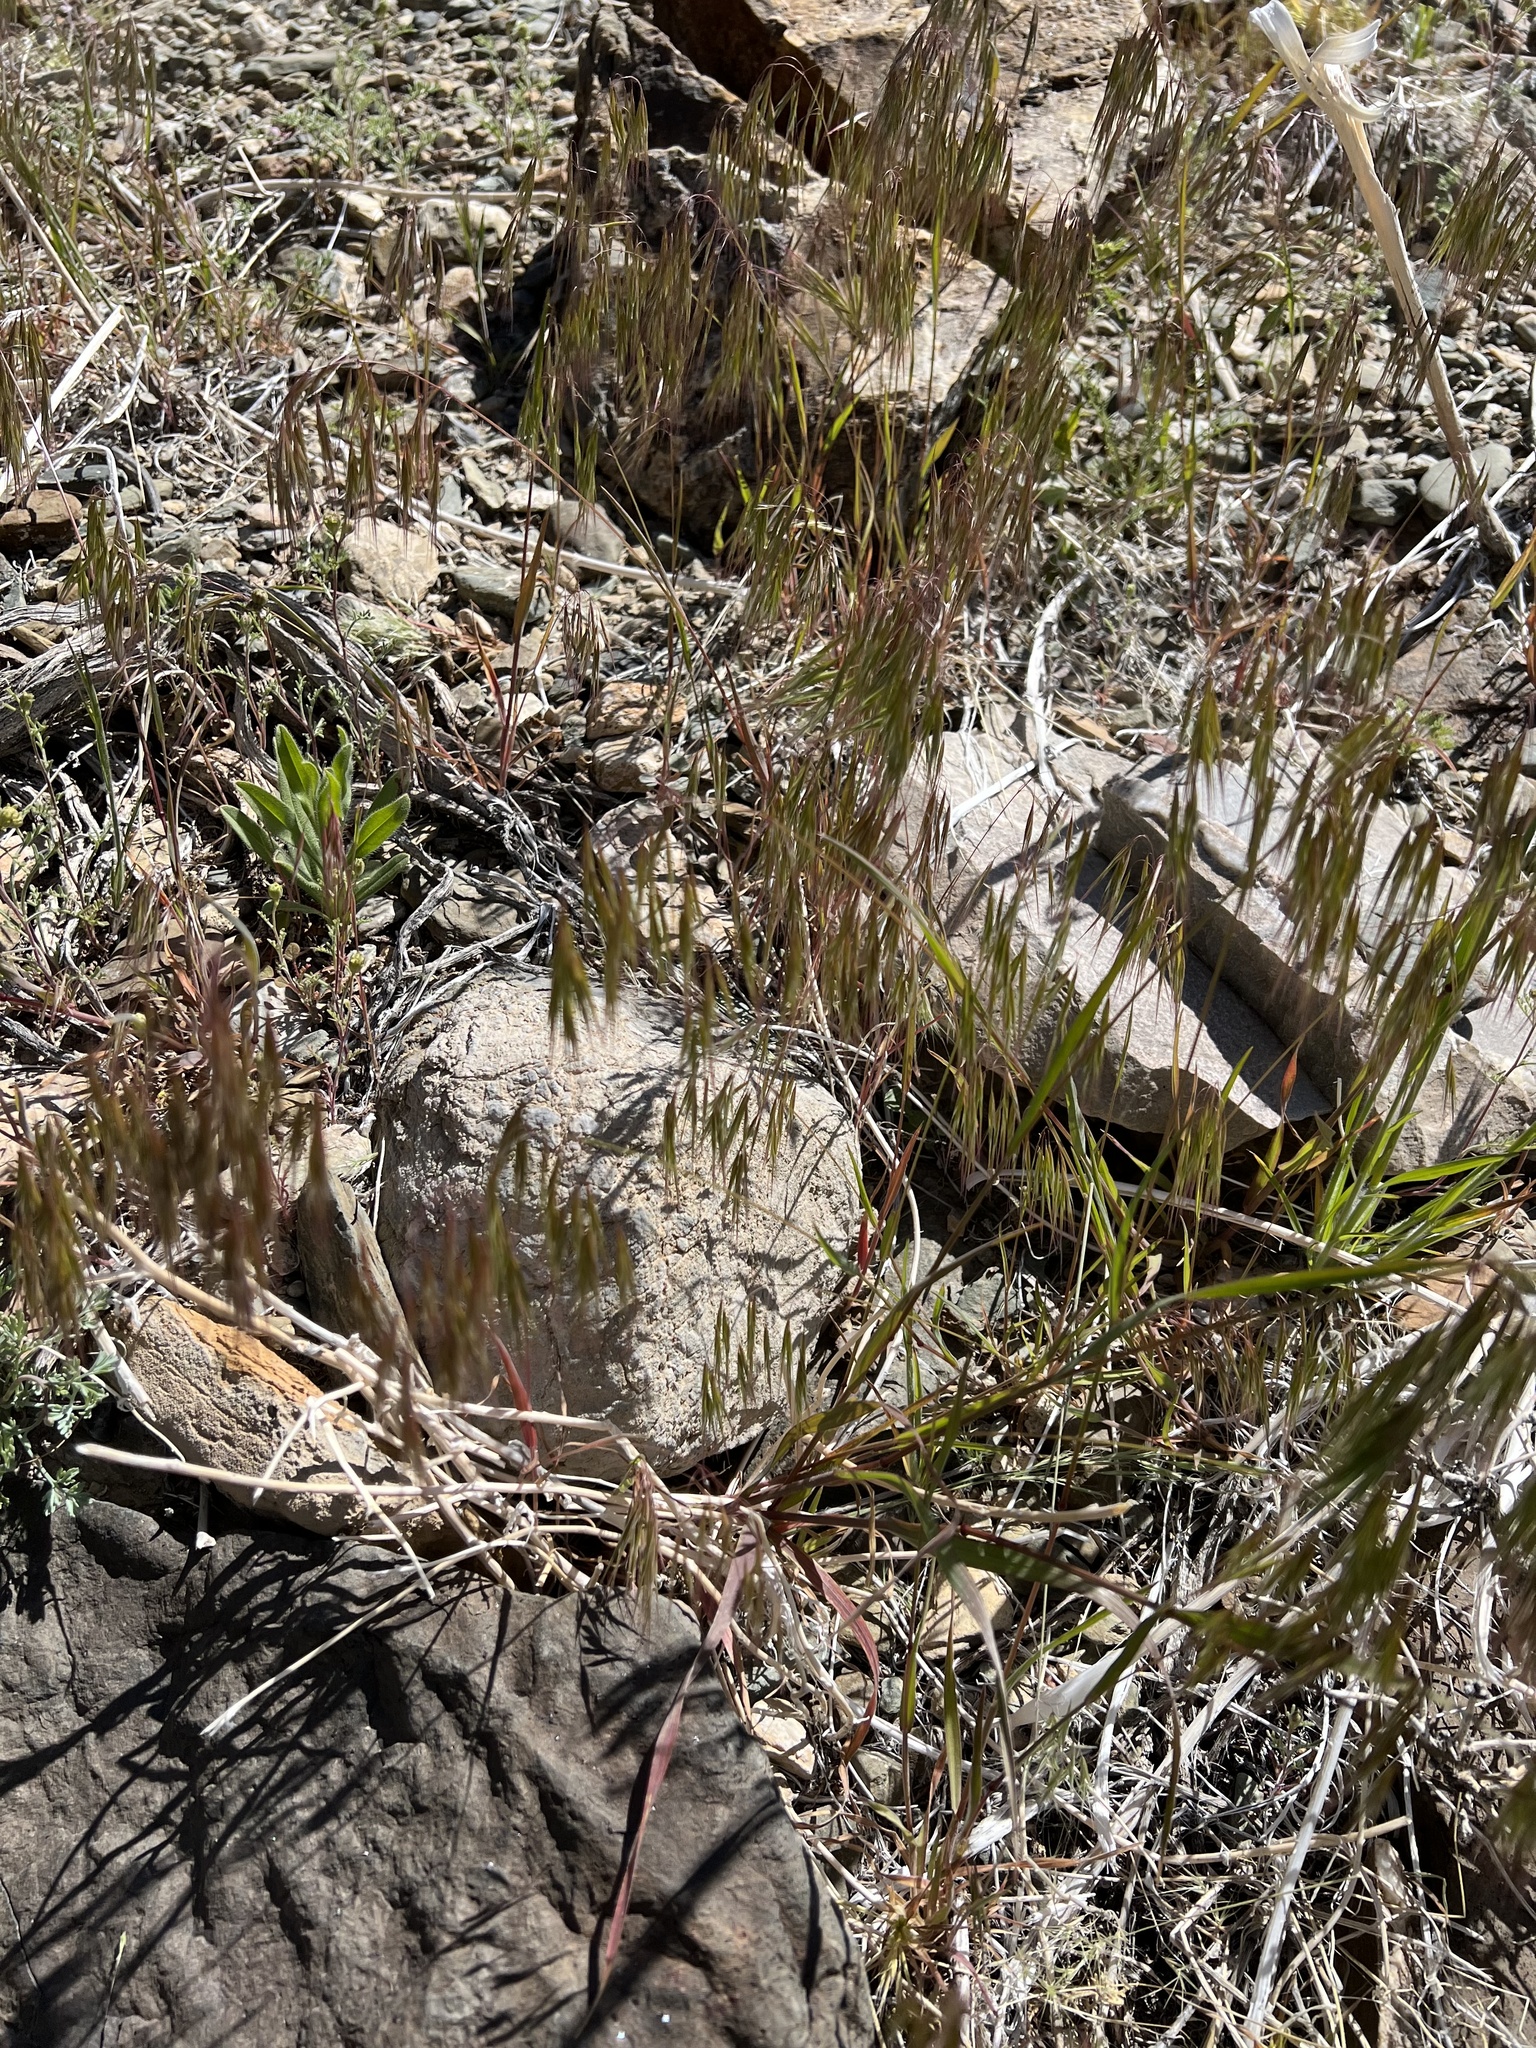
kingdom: Plantae
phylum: Tracheophyta
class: Liliopsida
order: Poales
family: Poaceae
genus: Bromus
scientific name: Bromus tectorum
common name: Cheatgrass
